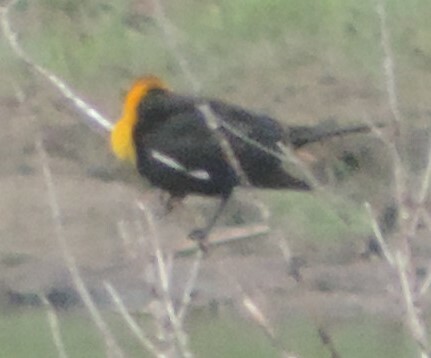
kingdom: Animalia
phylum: Chordata
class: Aves
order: Passeriformes
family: Icteridae
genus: Xanthocephalus
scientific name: Xanthocephalus xanthocephalus
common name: Yellow-headed blackbird
